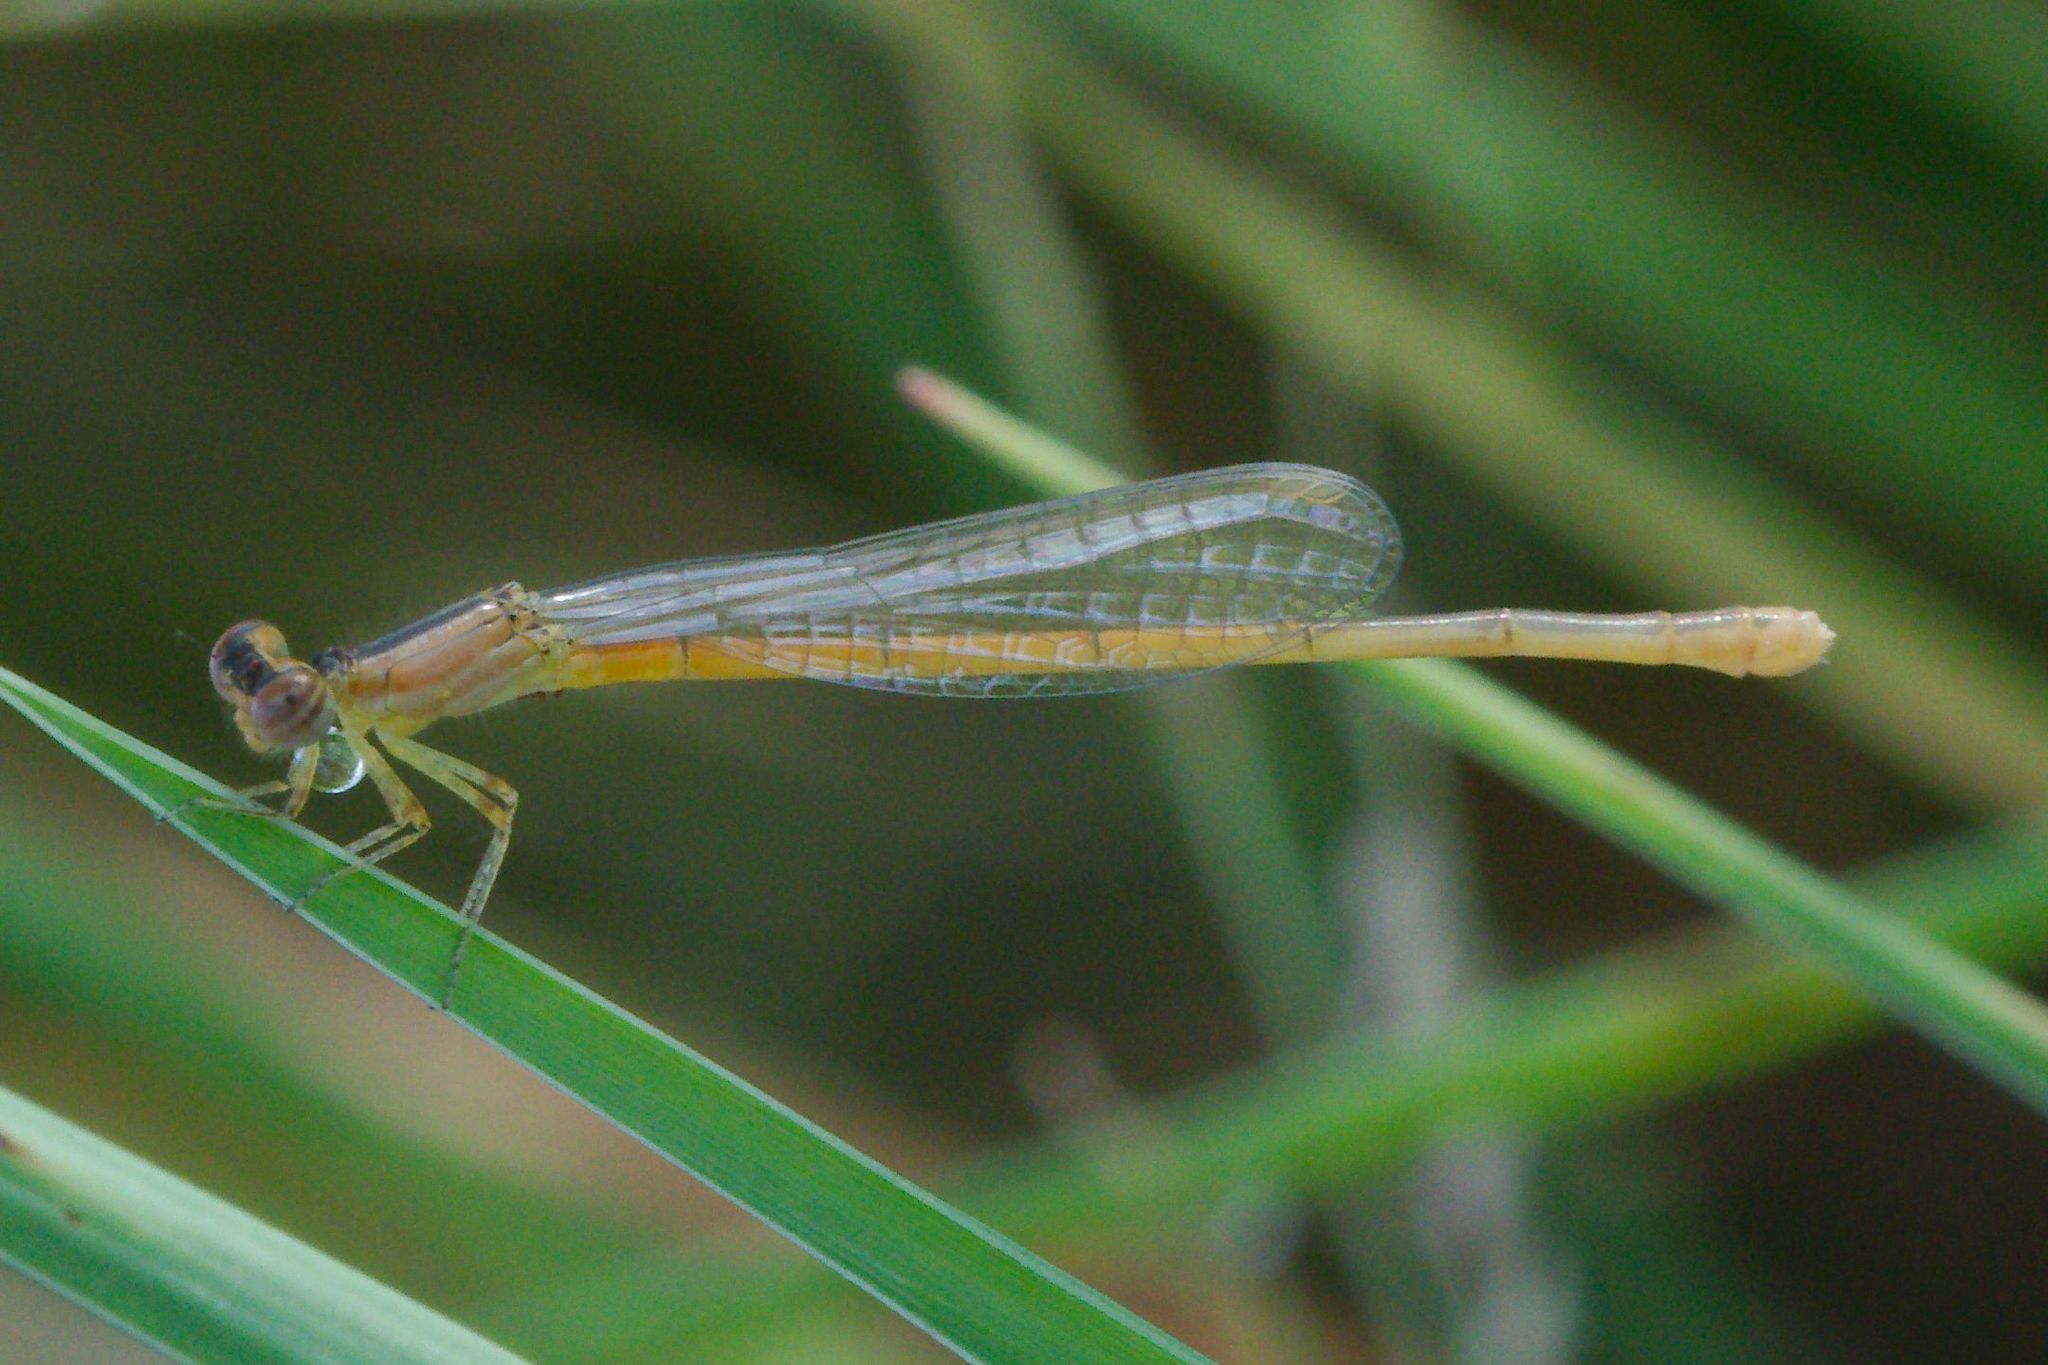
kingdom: Animalia
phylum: Arthropoda
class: Insecta
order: Odonata
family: Coenagrionidae
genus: Ischnura
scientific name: Ischnura hastata
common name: Citrine forktail
